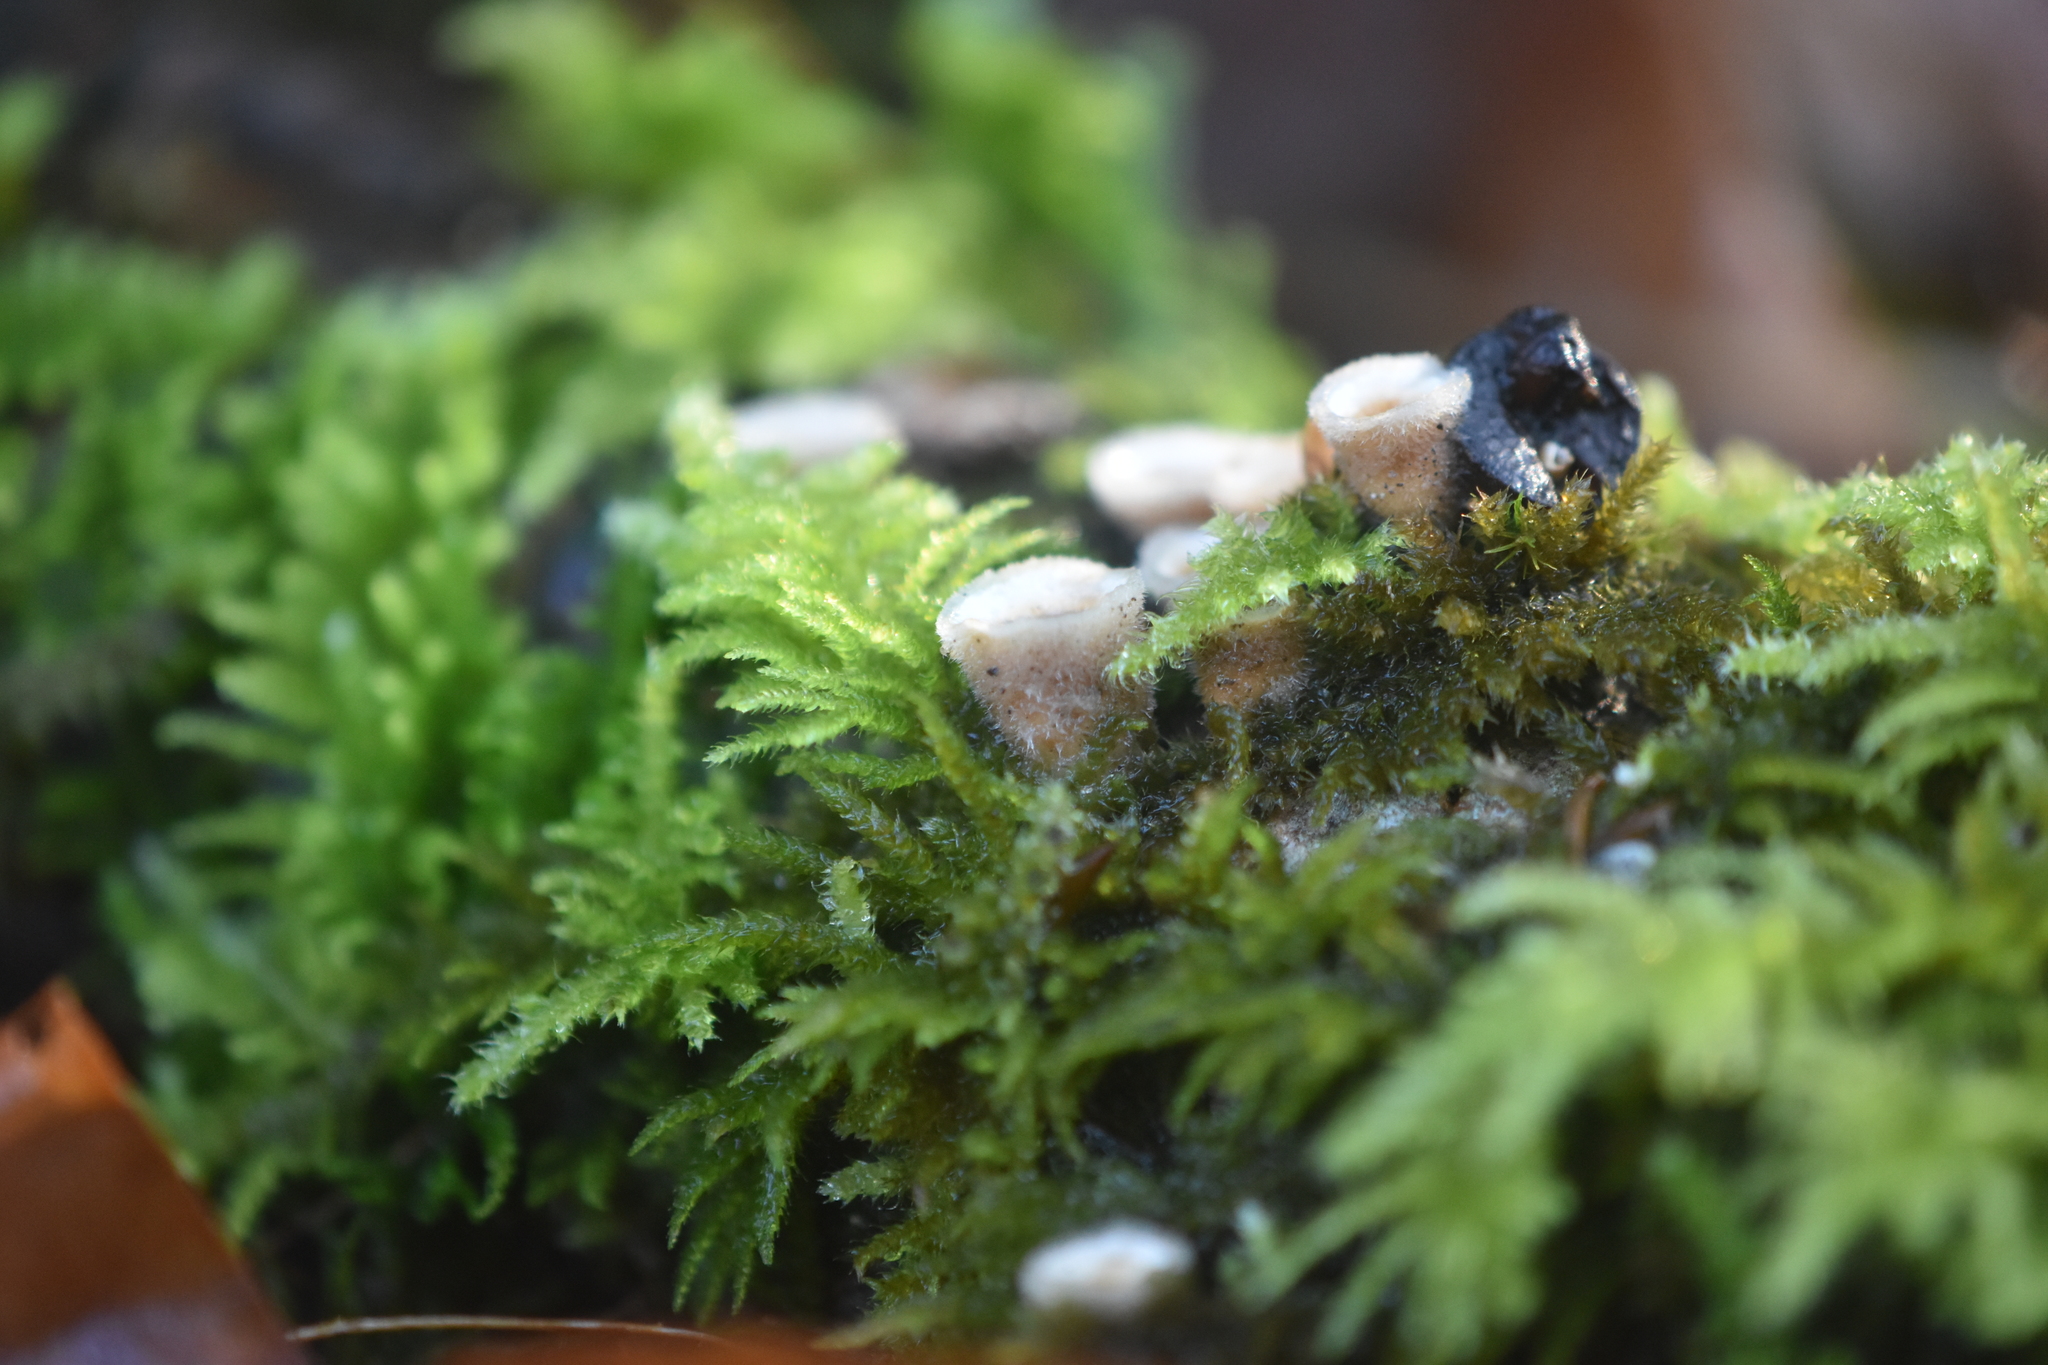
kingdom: Fungi
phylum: Basidiomycota
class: Agaricomycetes
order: Agaricales
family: Agaricaceae
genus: Nidula
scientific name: Nidula niveotomentosa
